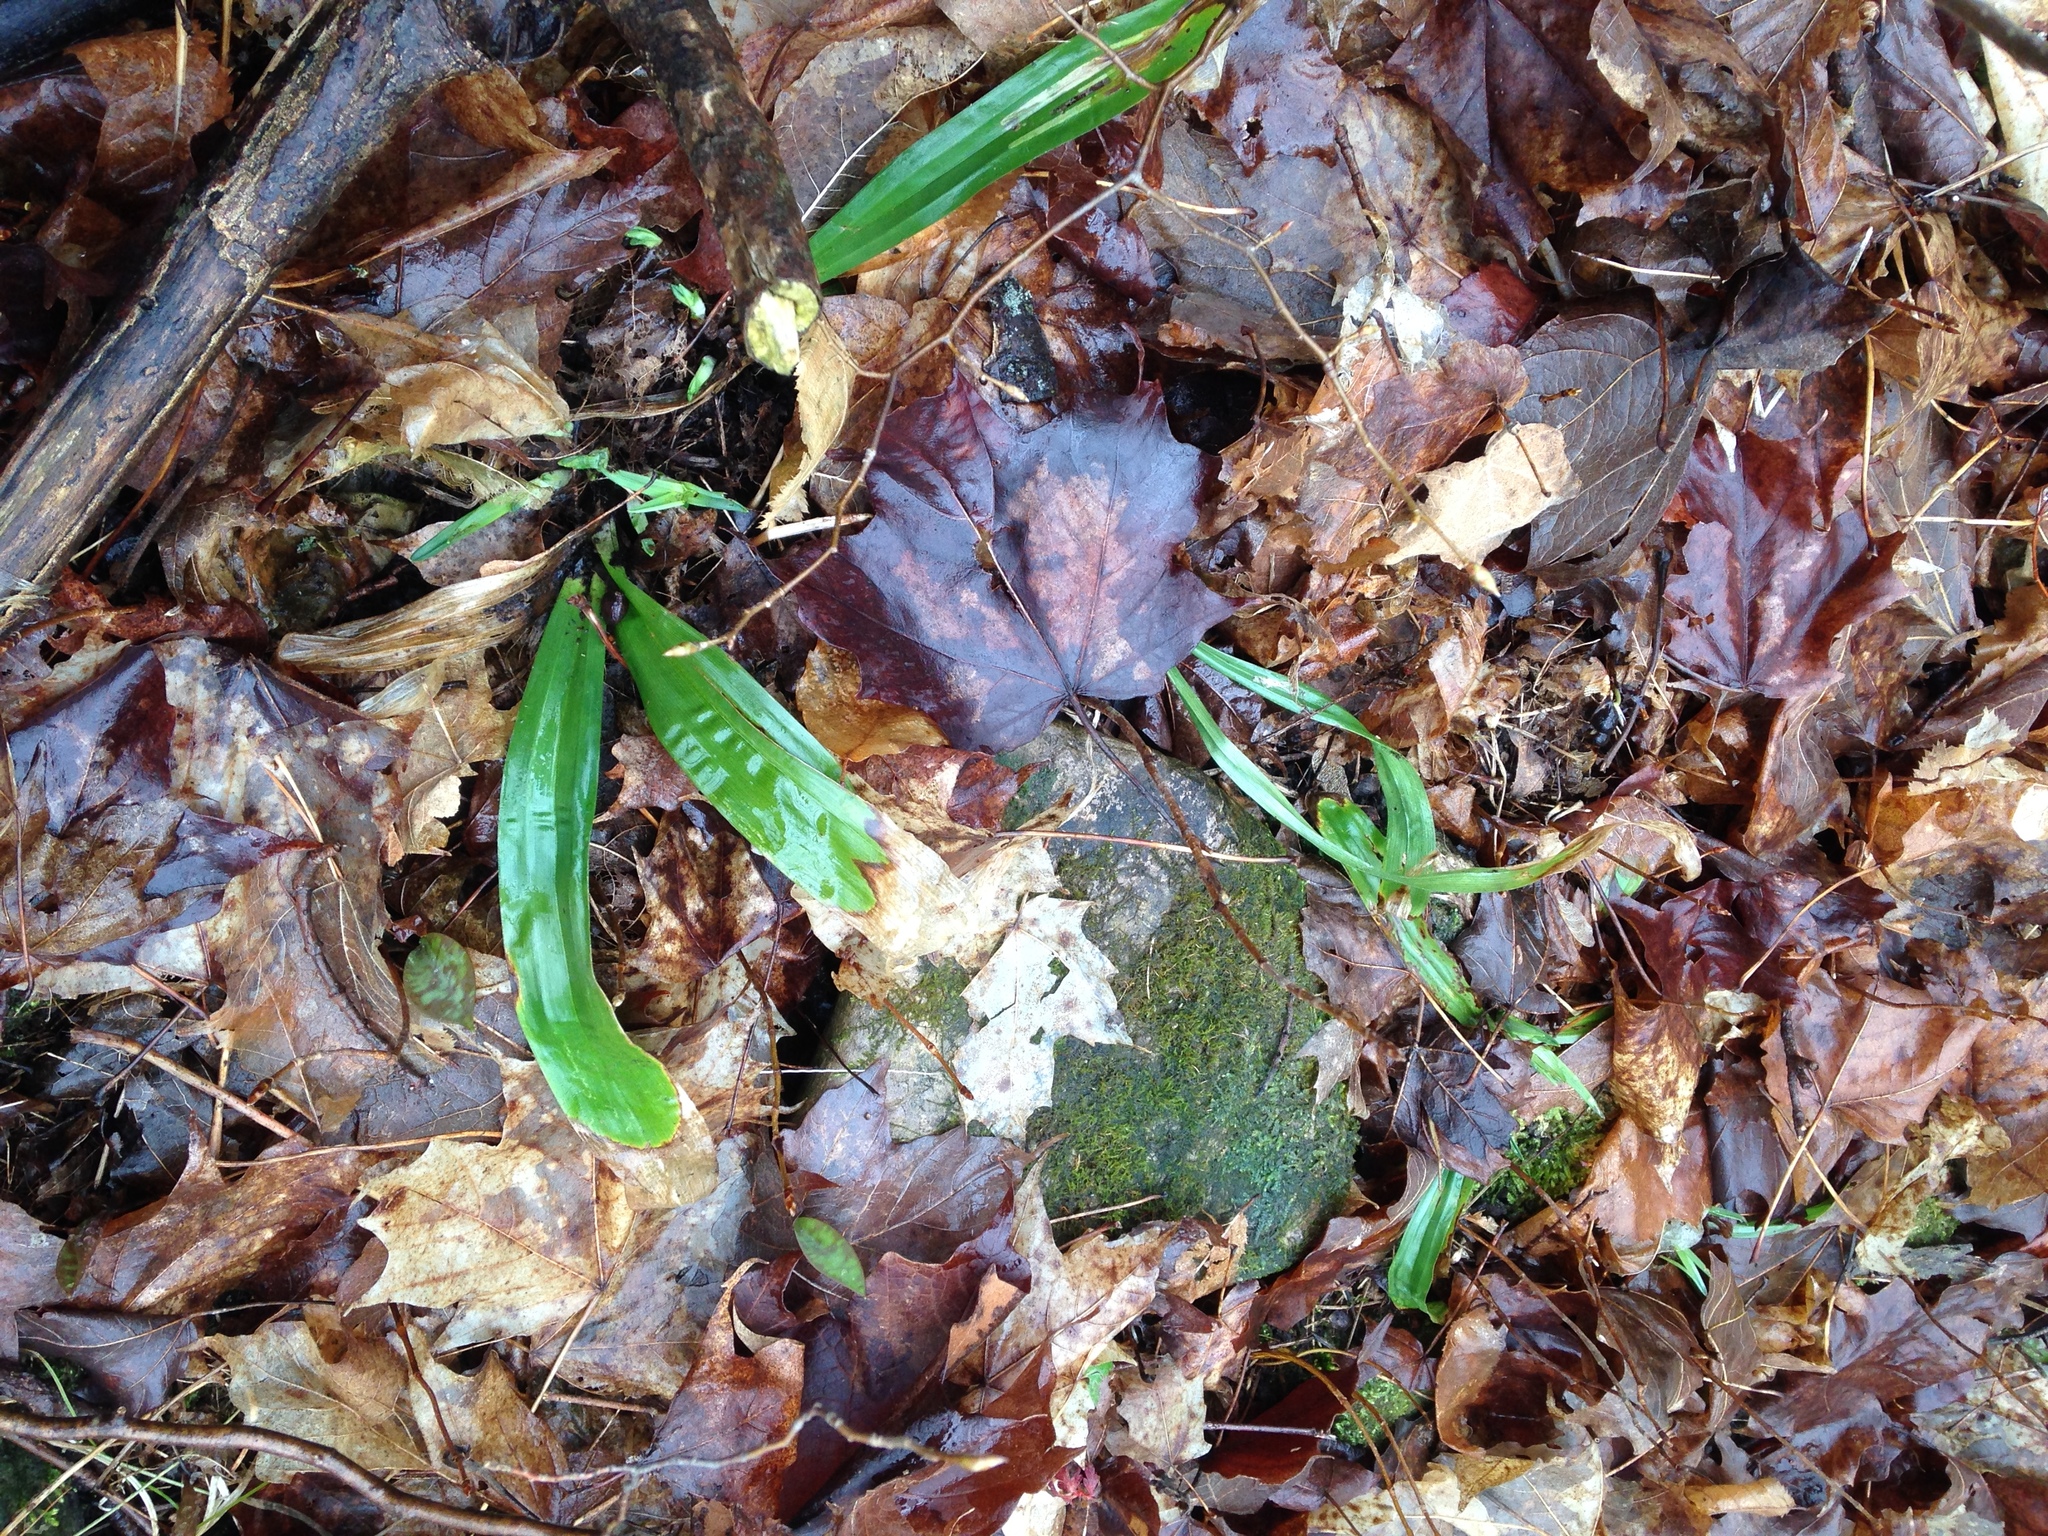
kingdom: Plantae
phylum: Tracheophyta
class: Liliopsida
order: Poales
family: Cyperaceae
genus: Carex
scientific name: Carex plantaginea
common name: Plantain-leaved sedge
